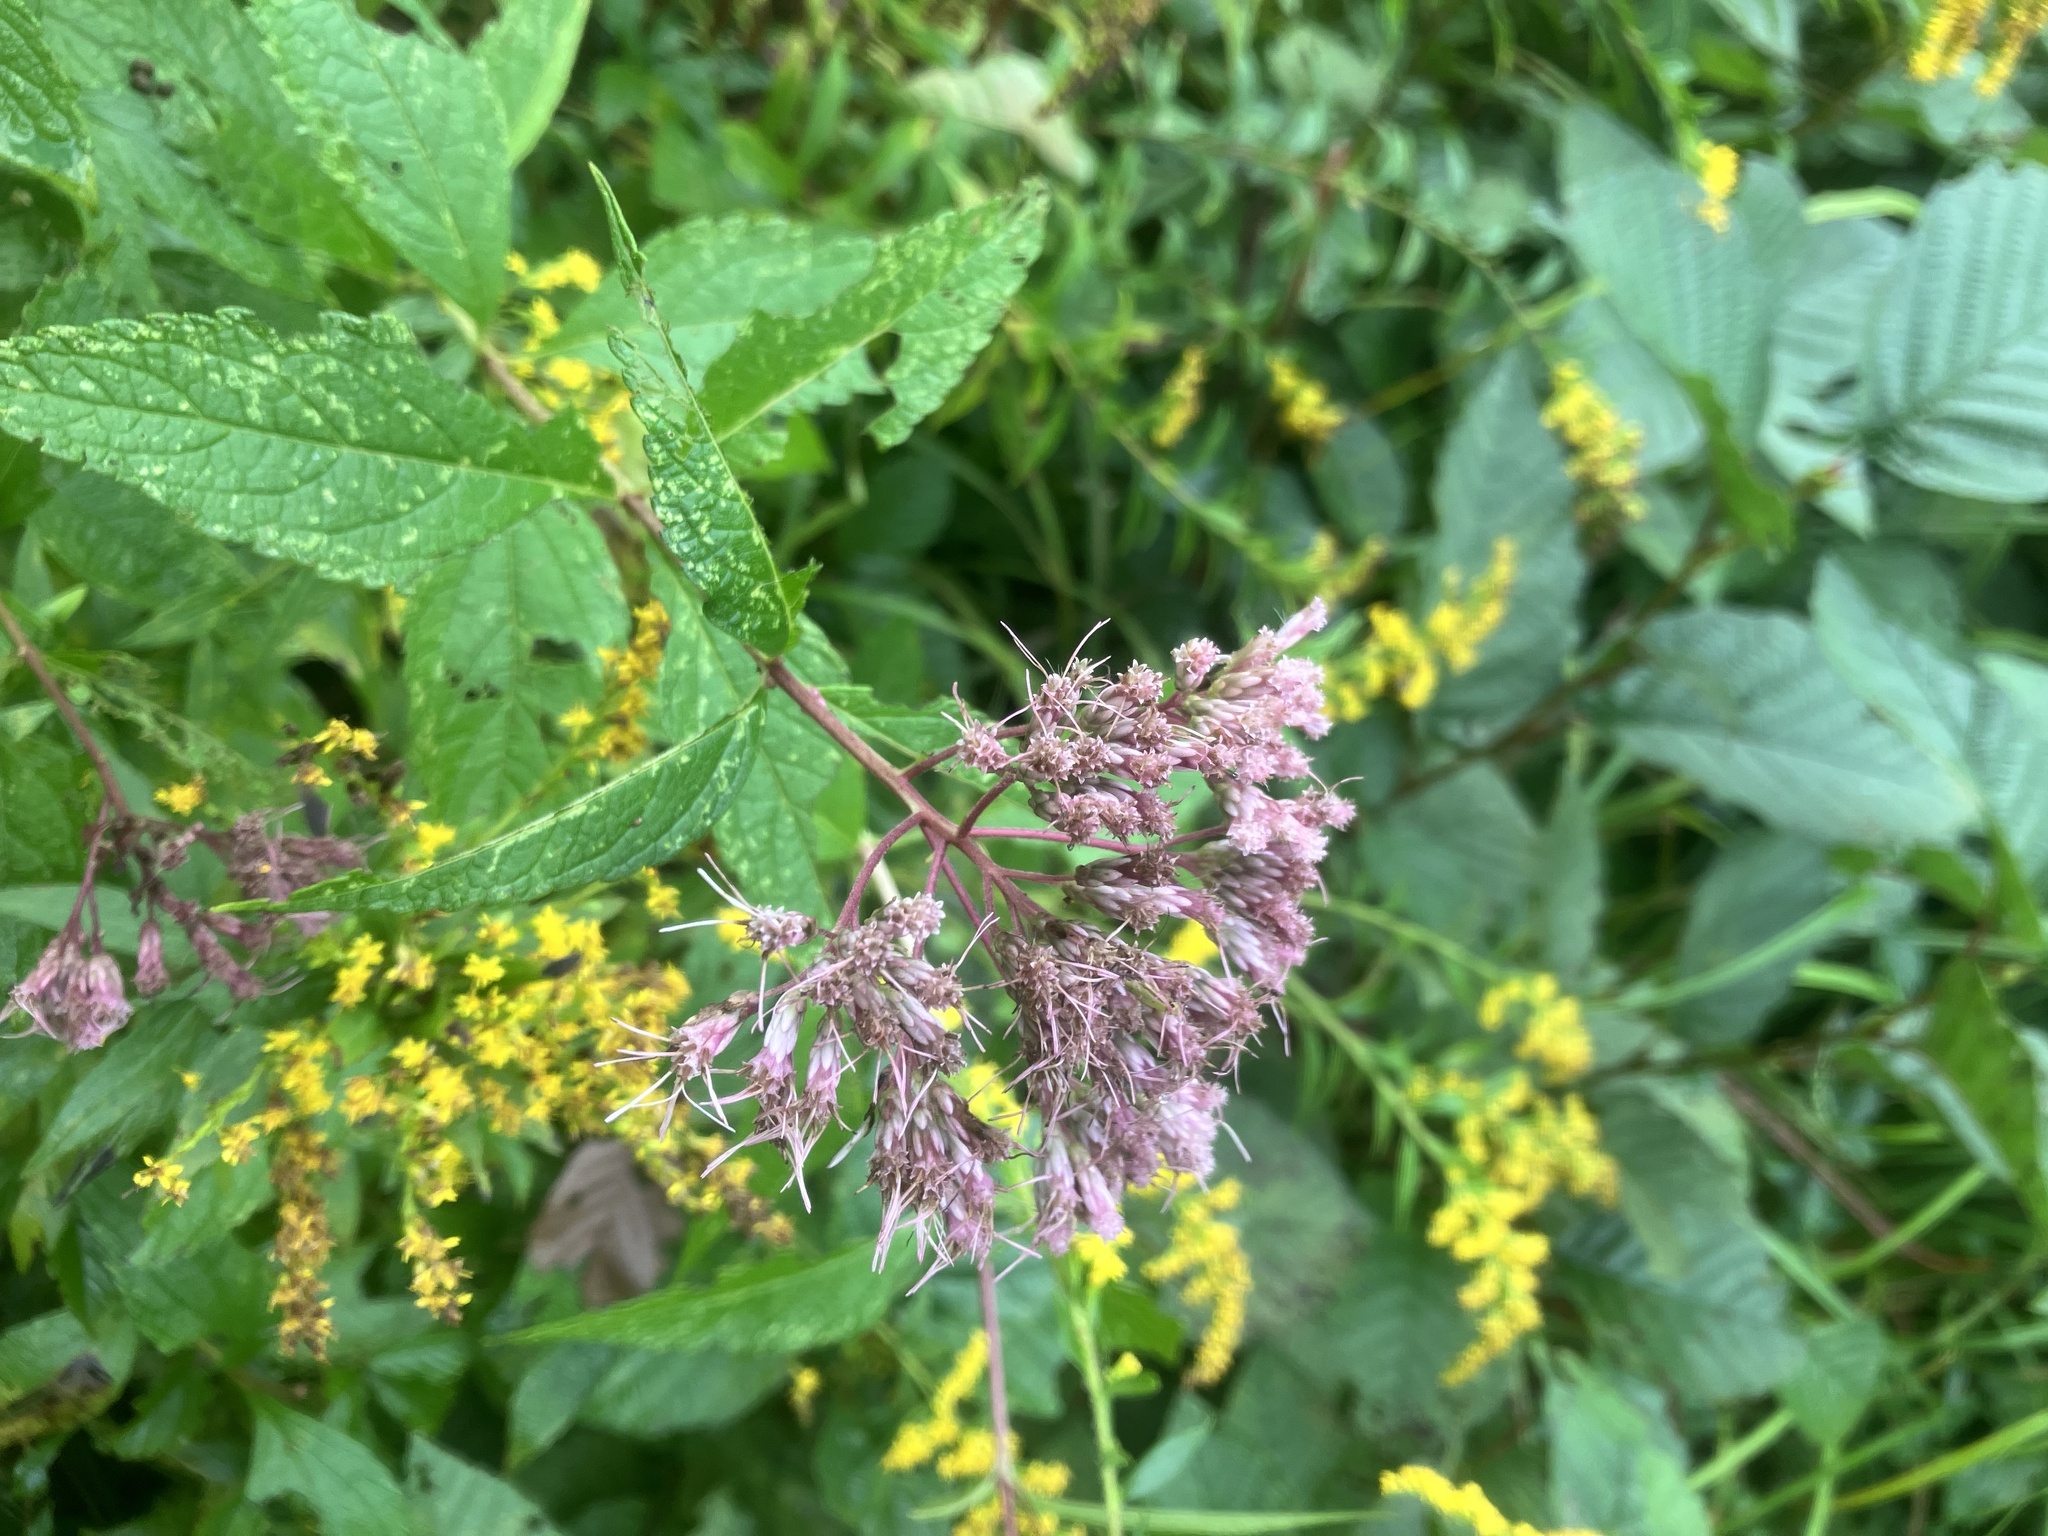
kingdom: Plantae
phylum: Tracheophyta
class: Magnoliopsida
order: Asterales
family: Asteraceae
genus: Eutrochium
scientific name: Eutrochium maculatum
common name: Spotted joe pye weed
